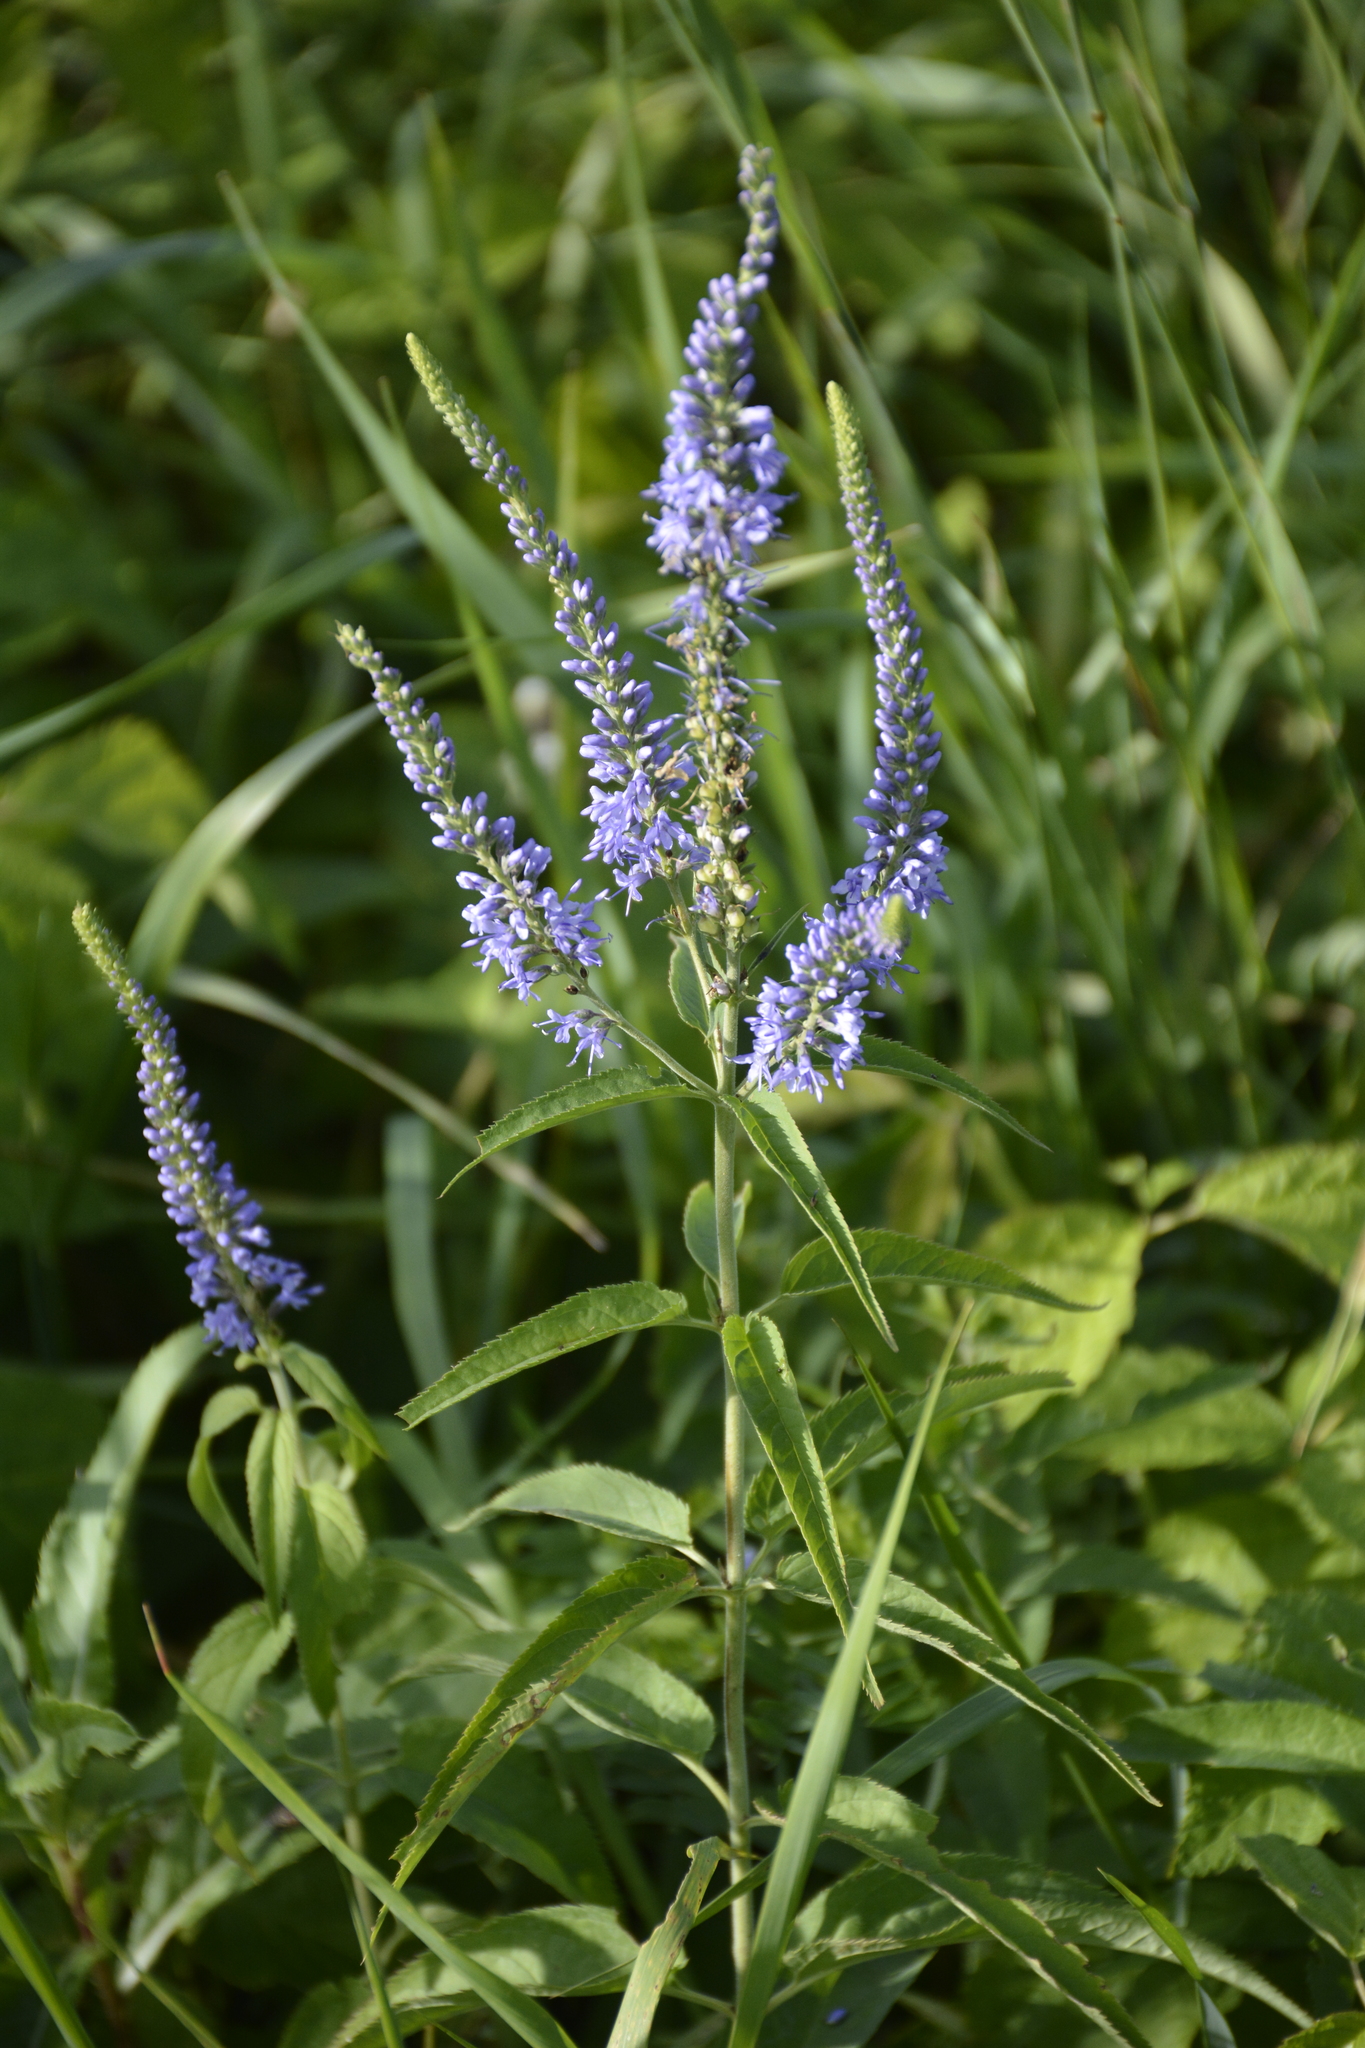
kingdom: Plantae
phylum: Tracheophyta
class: Magnoliopsida
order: Lamiales
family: Plantaginaceae
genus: Veronica
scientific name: Veronica longifolia
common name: Garden speedwell
